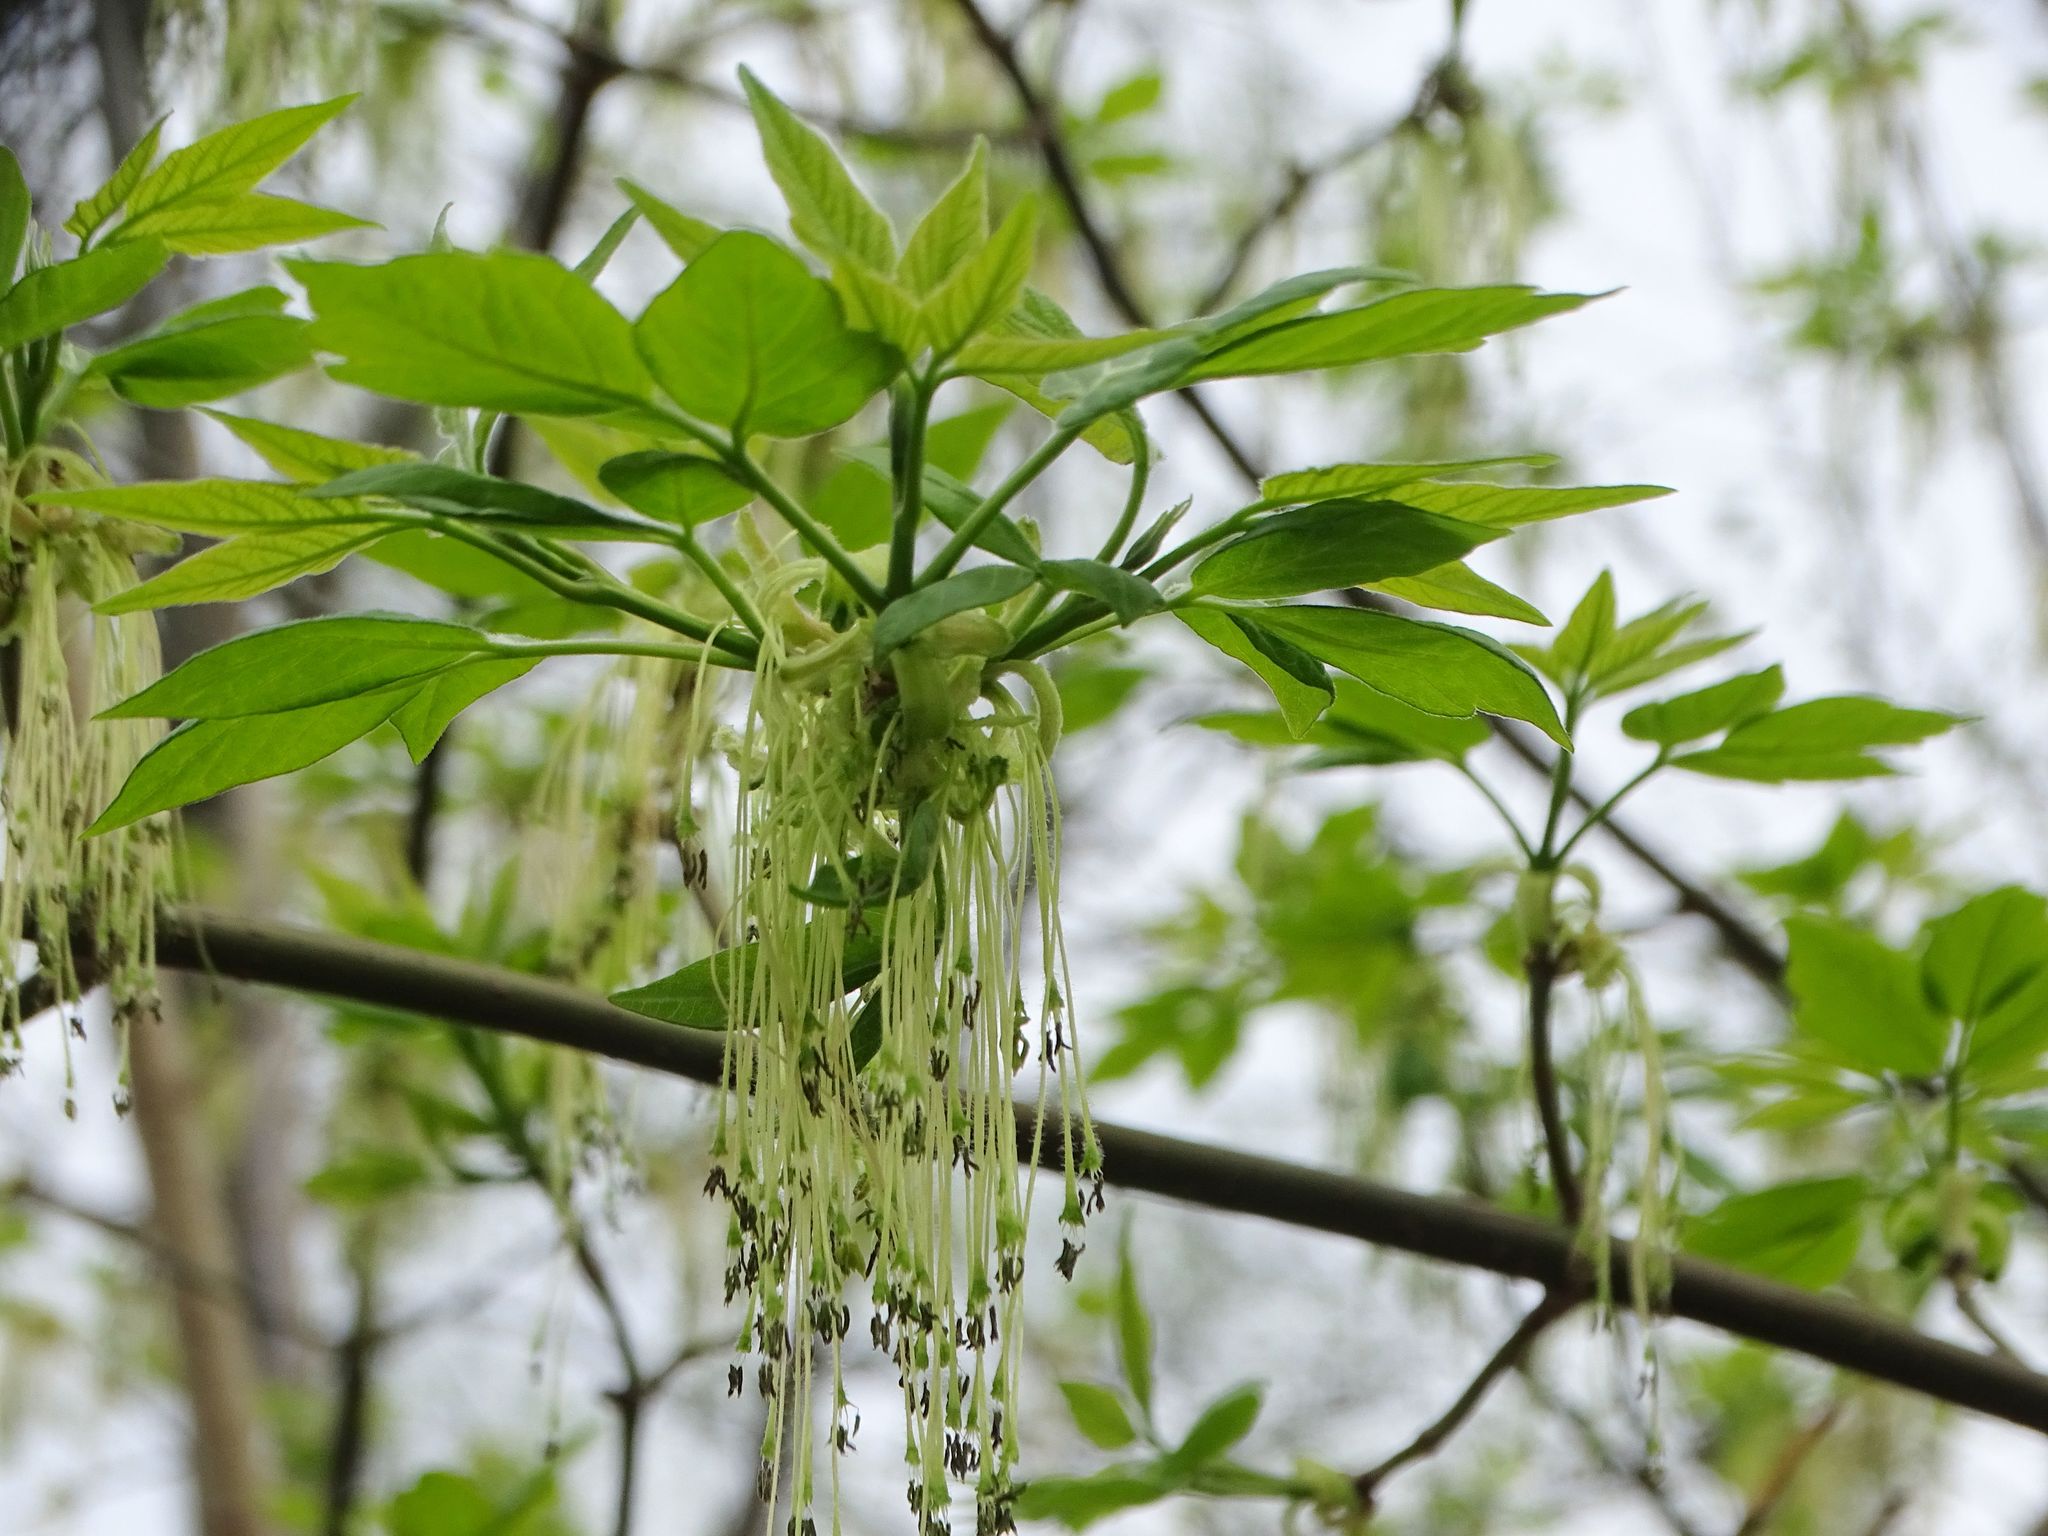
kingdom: Plantae
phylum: Tracheophyta
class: Magnoliopsida
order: Sapindales
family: Sapindaceae
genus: Acer
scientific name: Acer negundo
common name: Ashleaf maple
